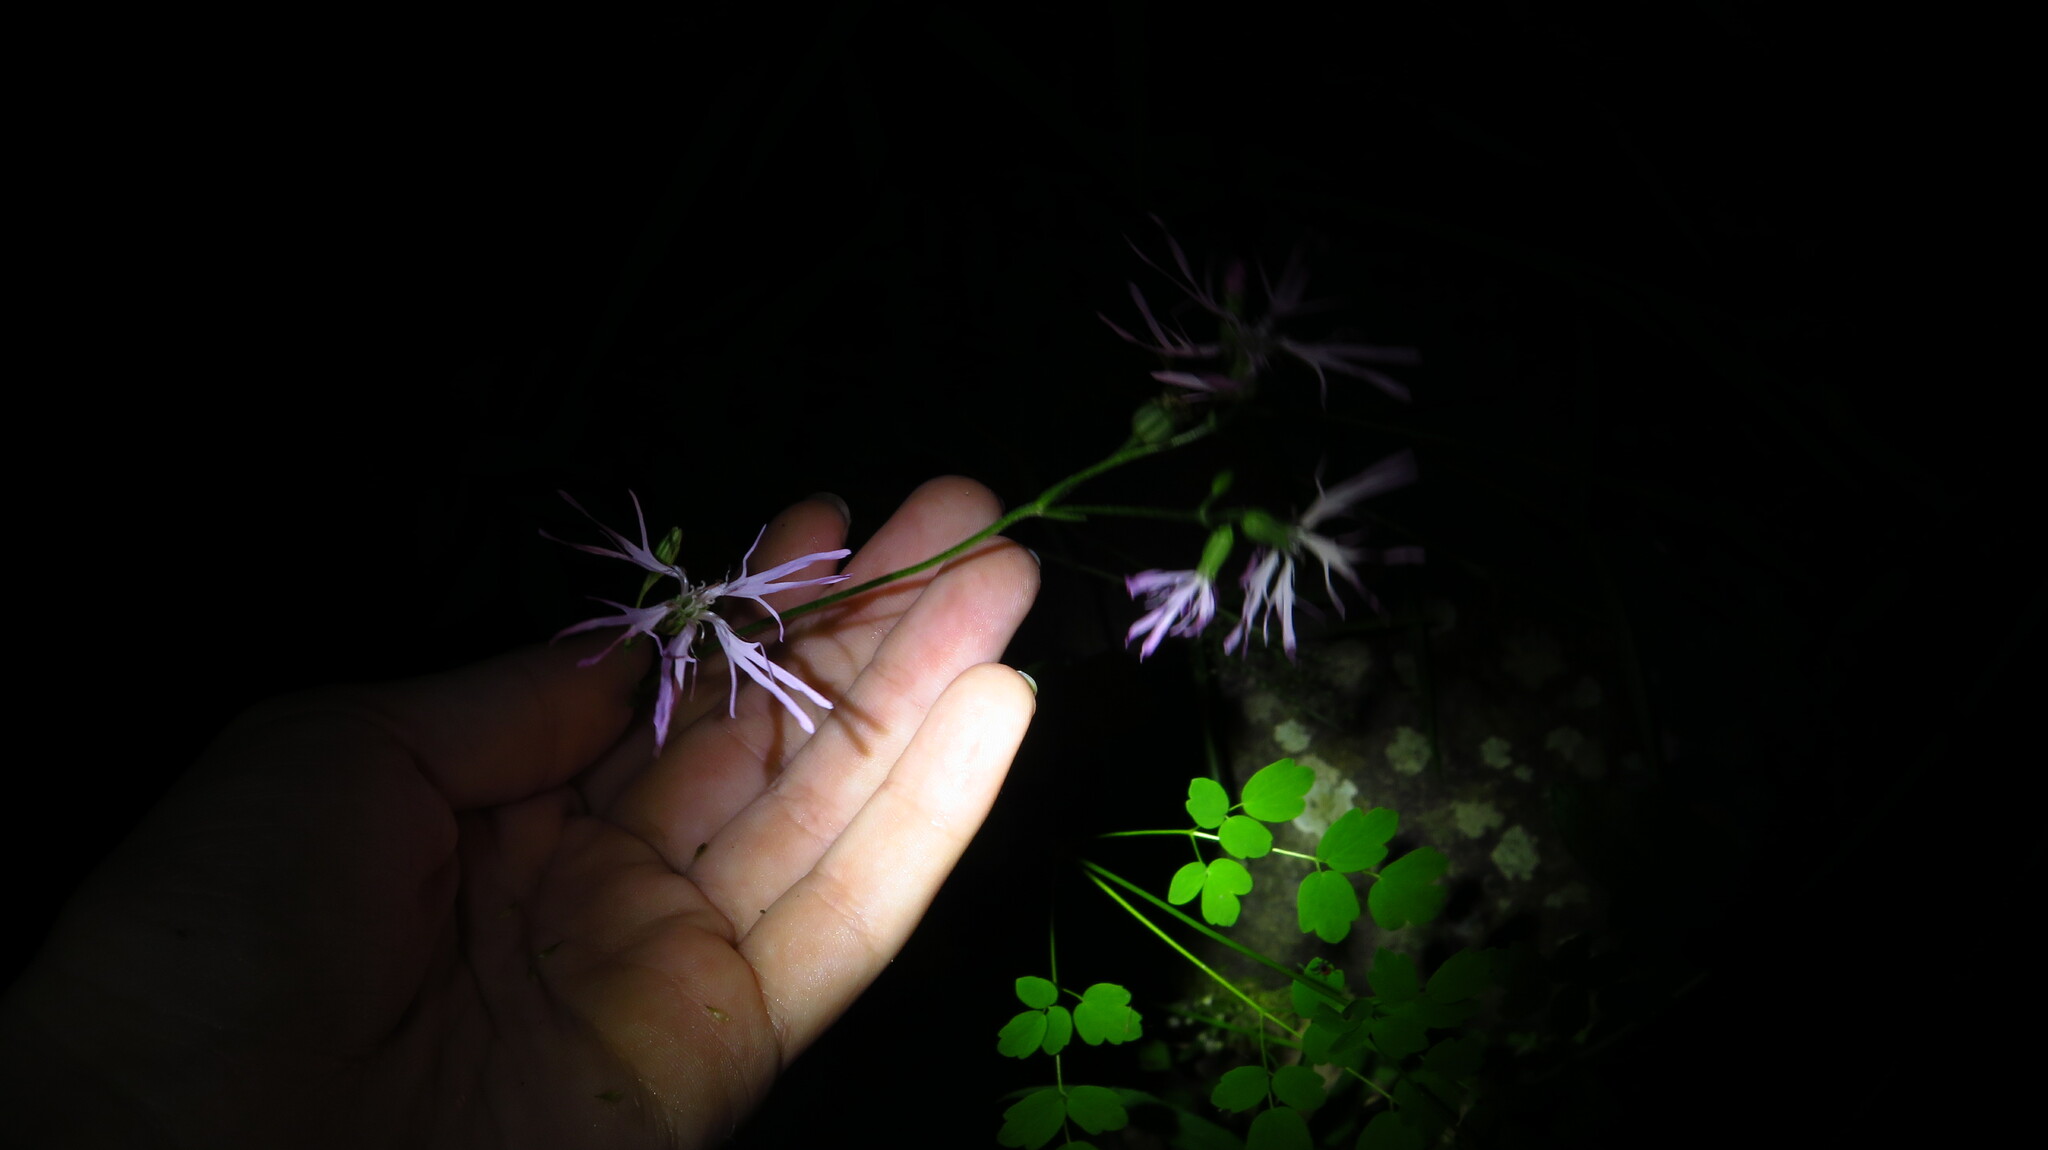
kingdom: Plantae
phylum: Tracheophyta
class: Magnoliopsida
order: Caryophyllales
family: Caryophyllaceae
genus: Silene
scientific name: Silene flos-cuculi
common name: Ragged-robin
